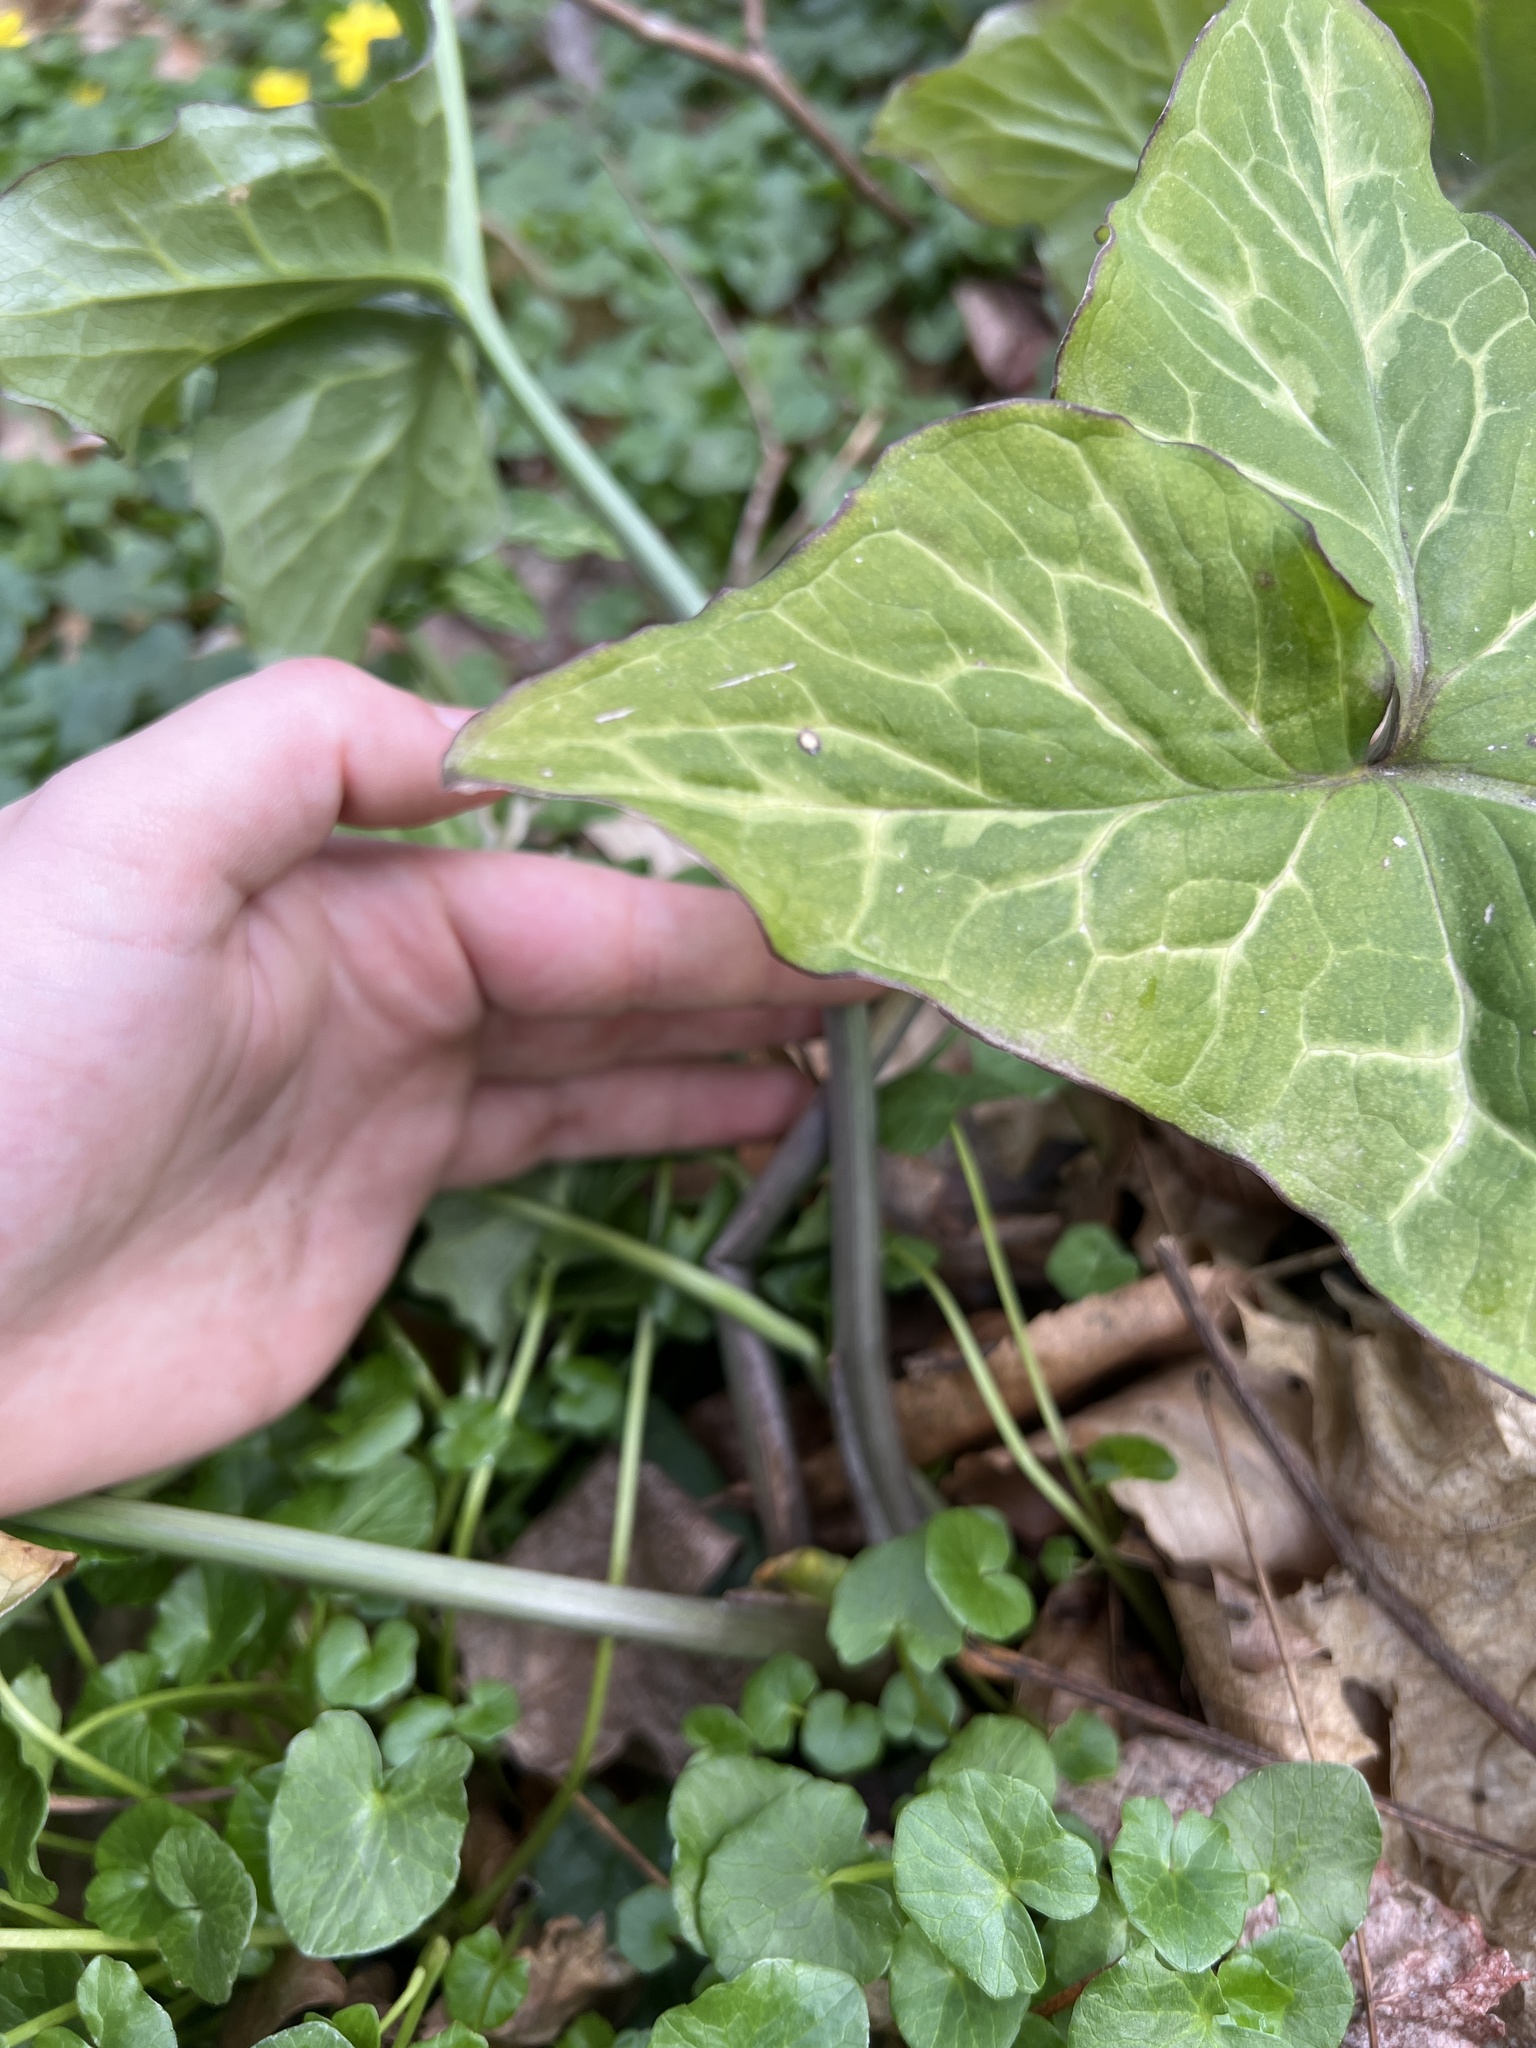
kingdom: Plantae
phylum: Tracheophyta
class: Liliopsida
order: Alismatales
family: Araceae
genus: Arum
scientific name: Arum italicum
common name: Italian lords-and-ladies
